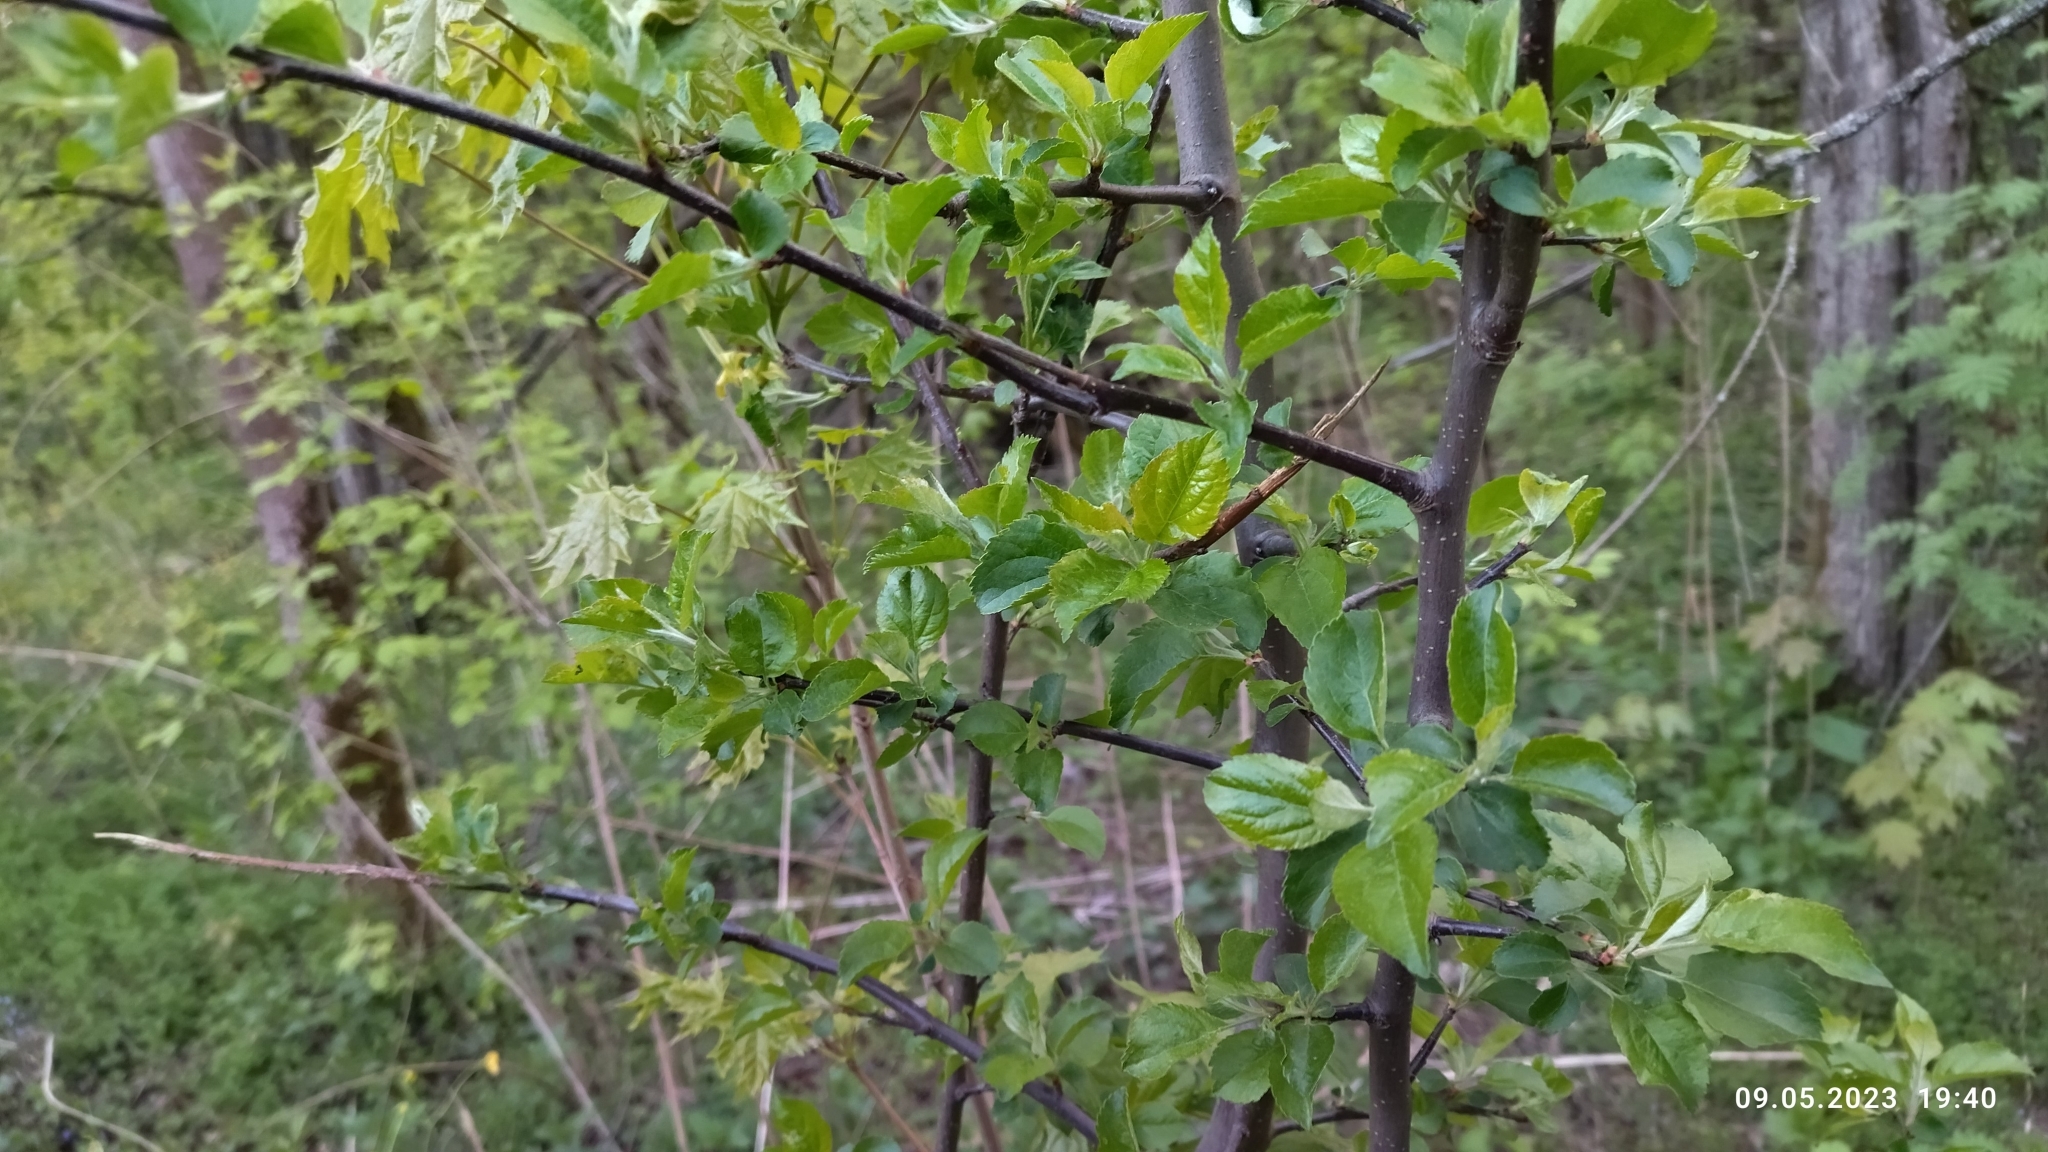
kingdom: Plantae
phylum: Tracheophyta
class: Magnoliopsida
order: Rosales
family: Rosaceae
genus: Malus
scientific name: Malus domestica
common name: Apple
